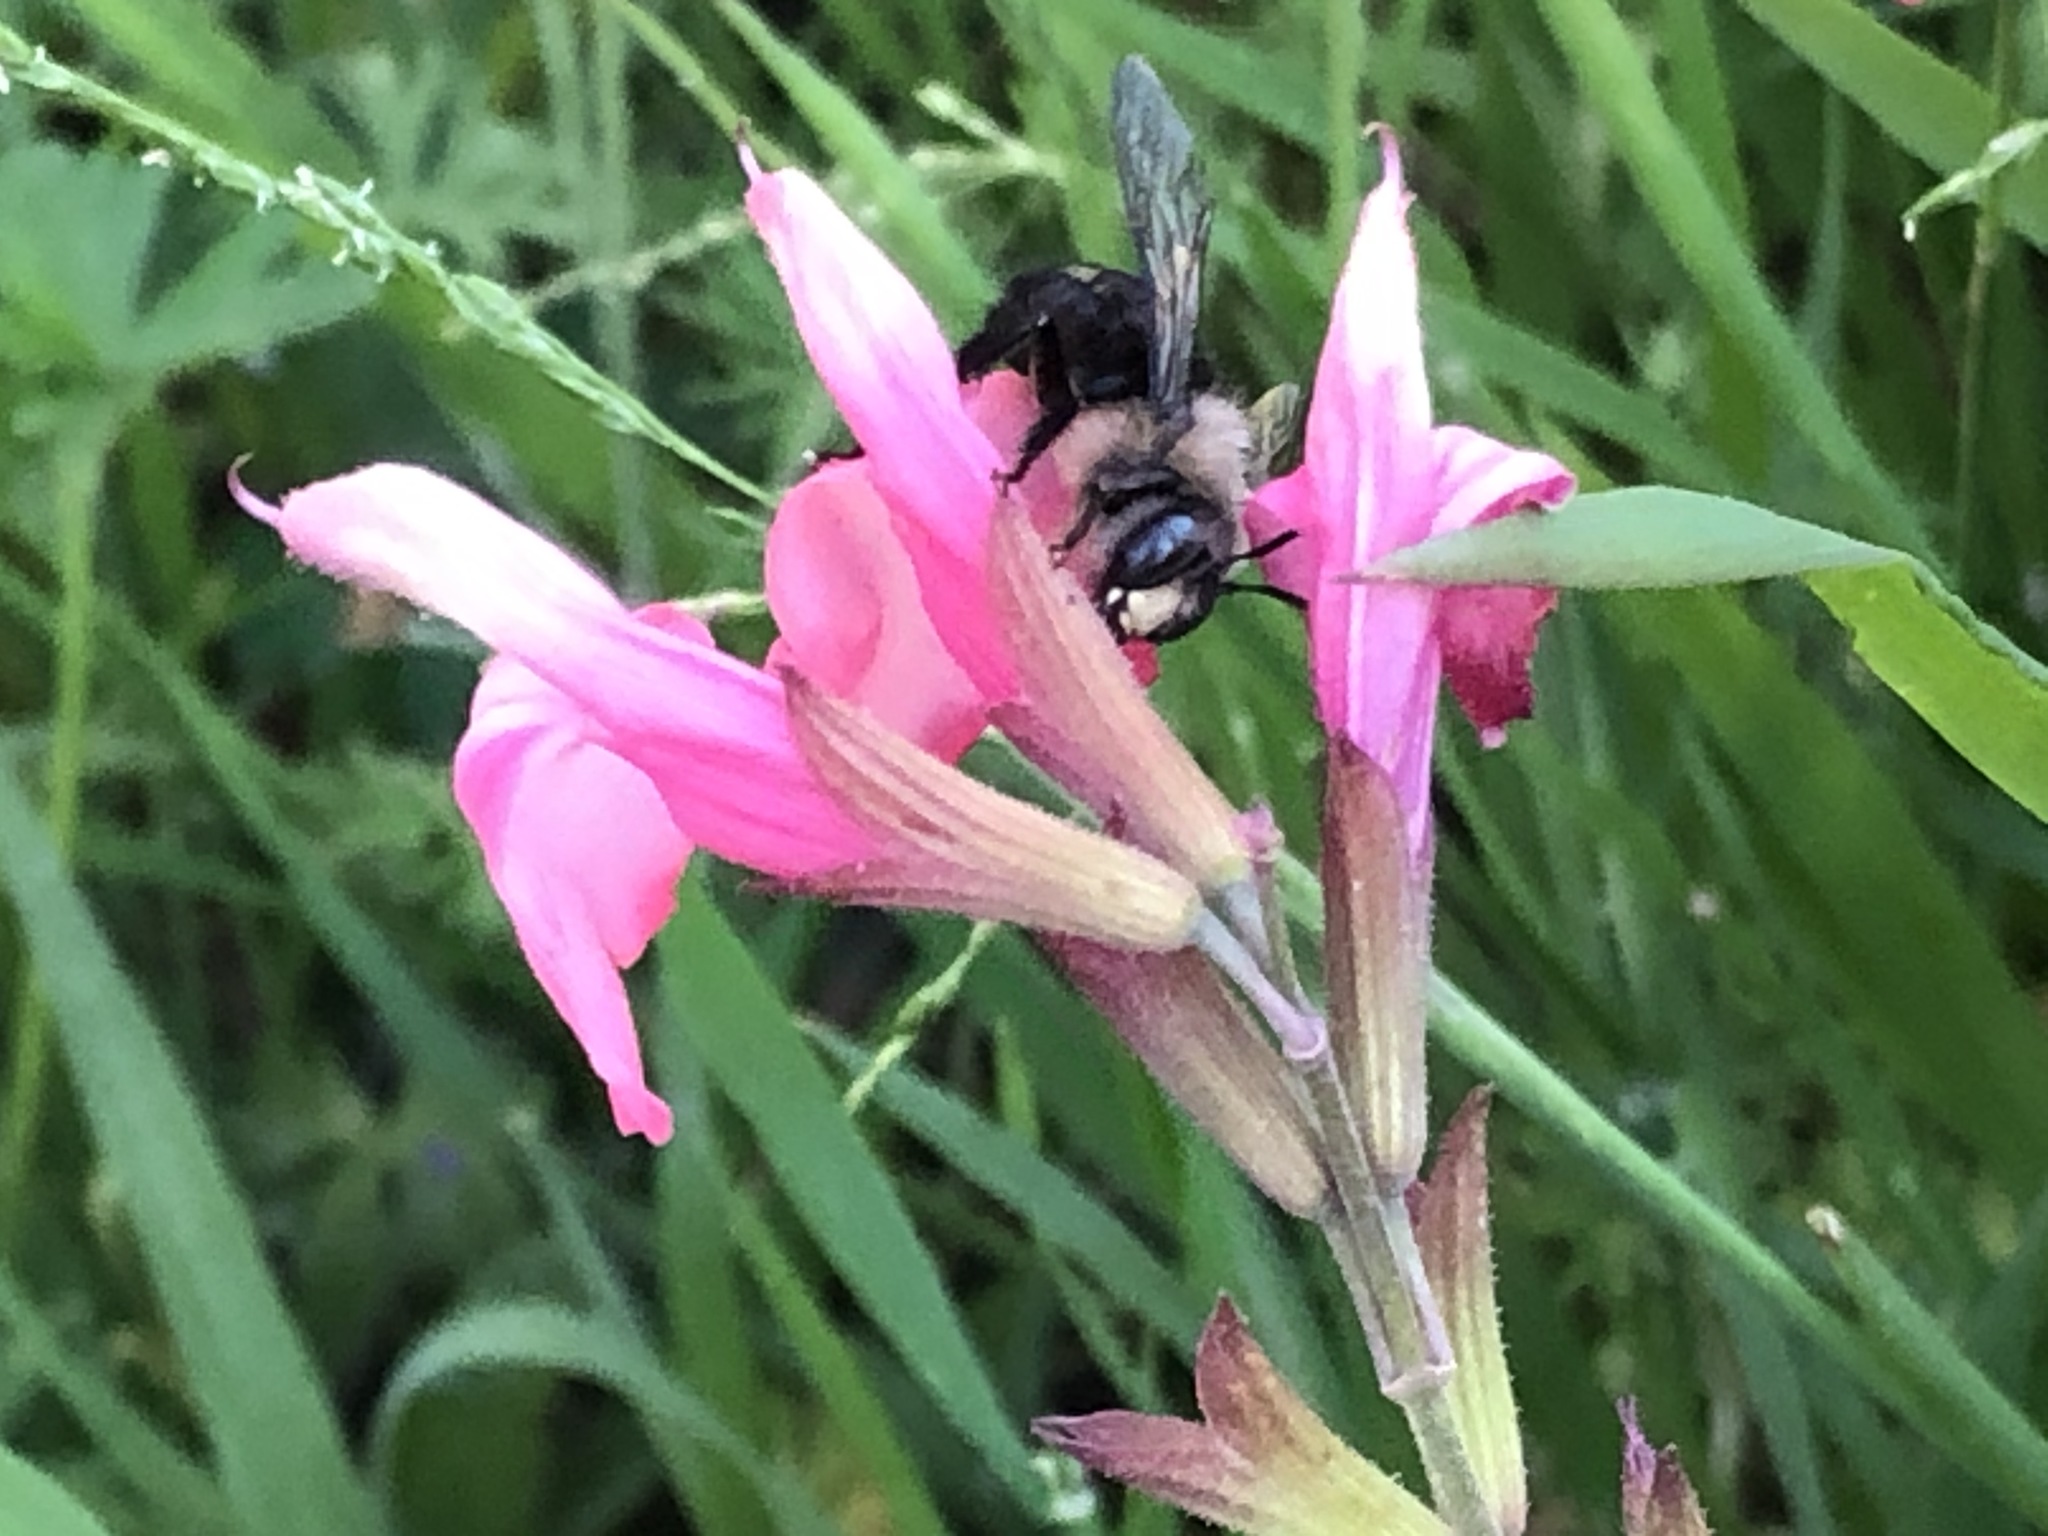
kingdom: Animalia
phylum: Arthropoda
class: Insecta
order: Hymenoptera
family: Apidae
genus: Xylocopa
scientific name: Xylocopa tabaniformis
